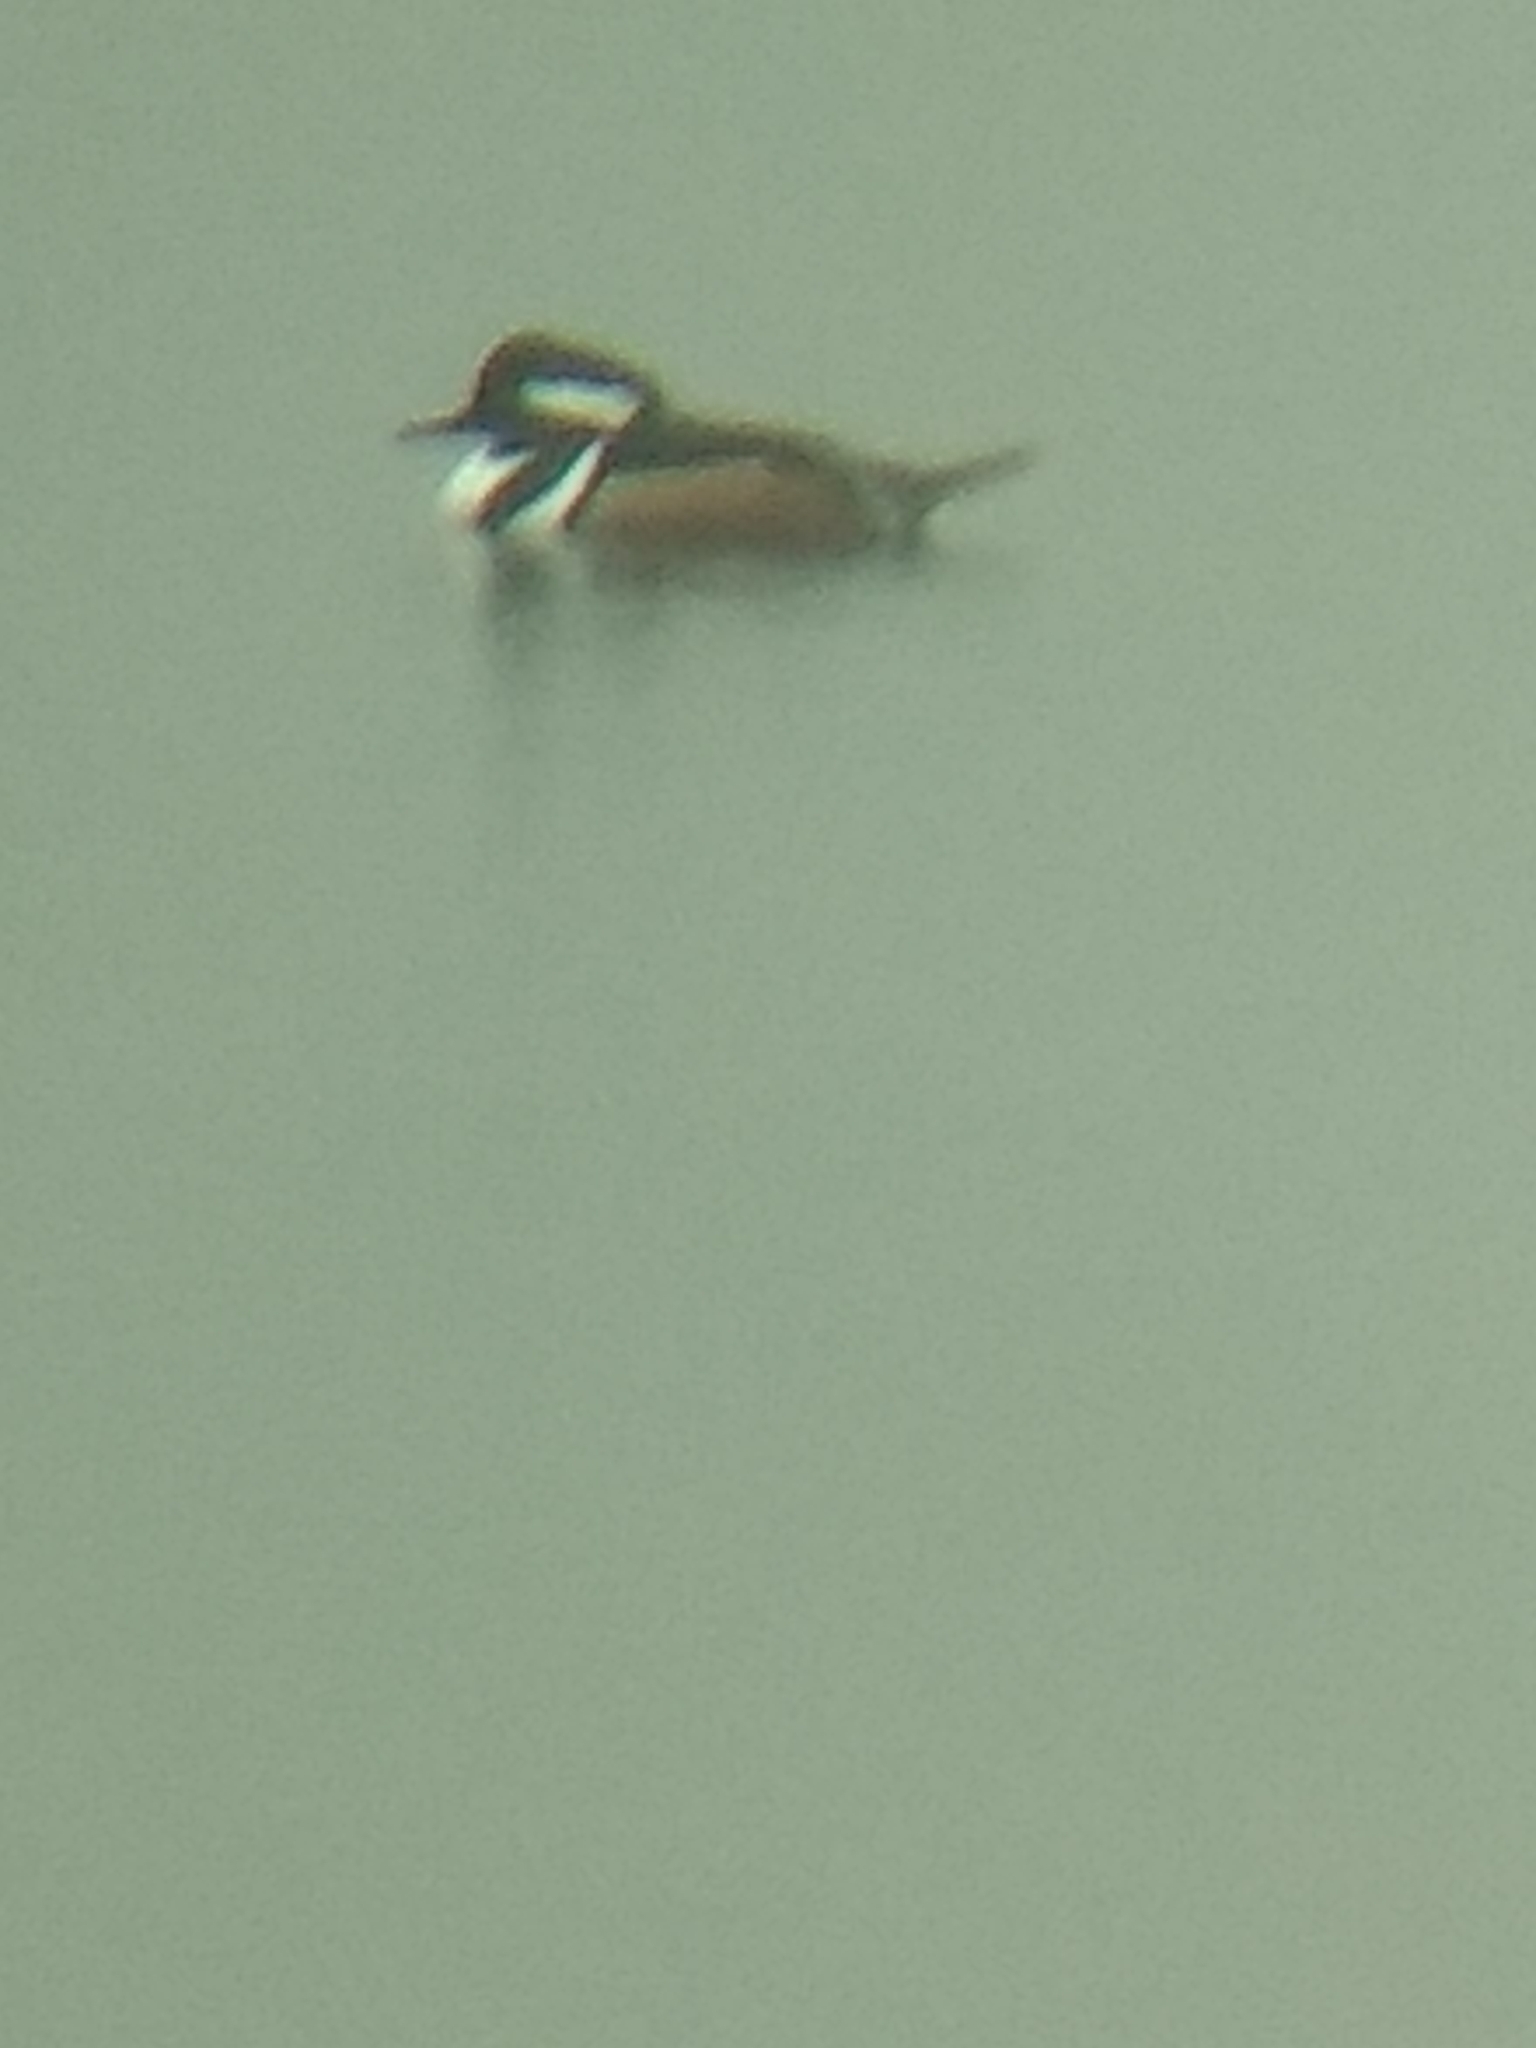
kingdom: Animalia
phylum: Chordata
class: Aves
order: Anseriformes
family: Anatidae
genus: Lophodytes
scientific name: Lophodytes cucullatus
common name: Hooded merganser
